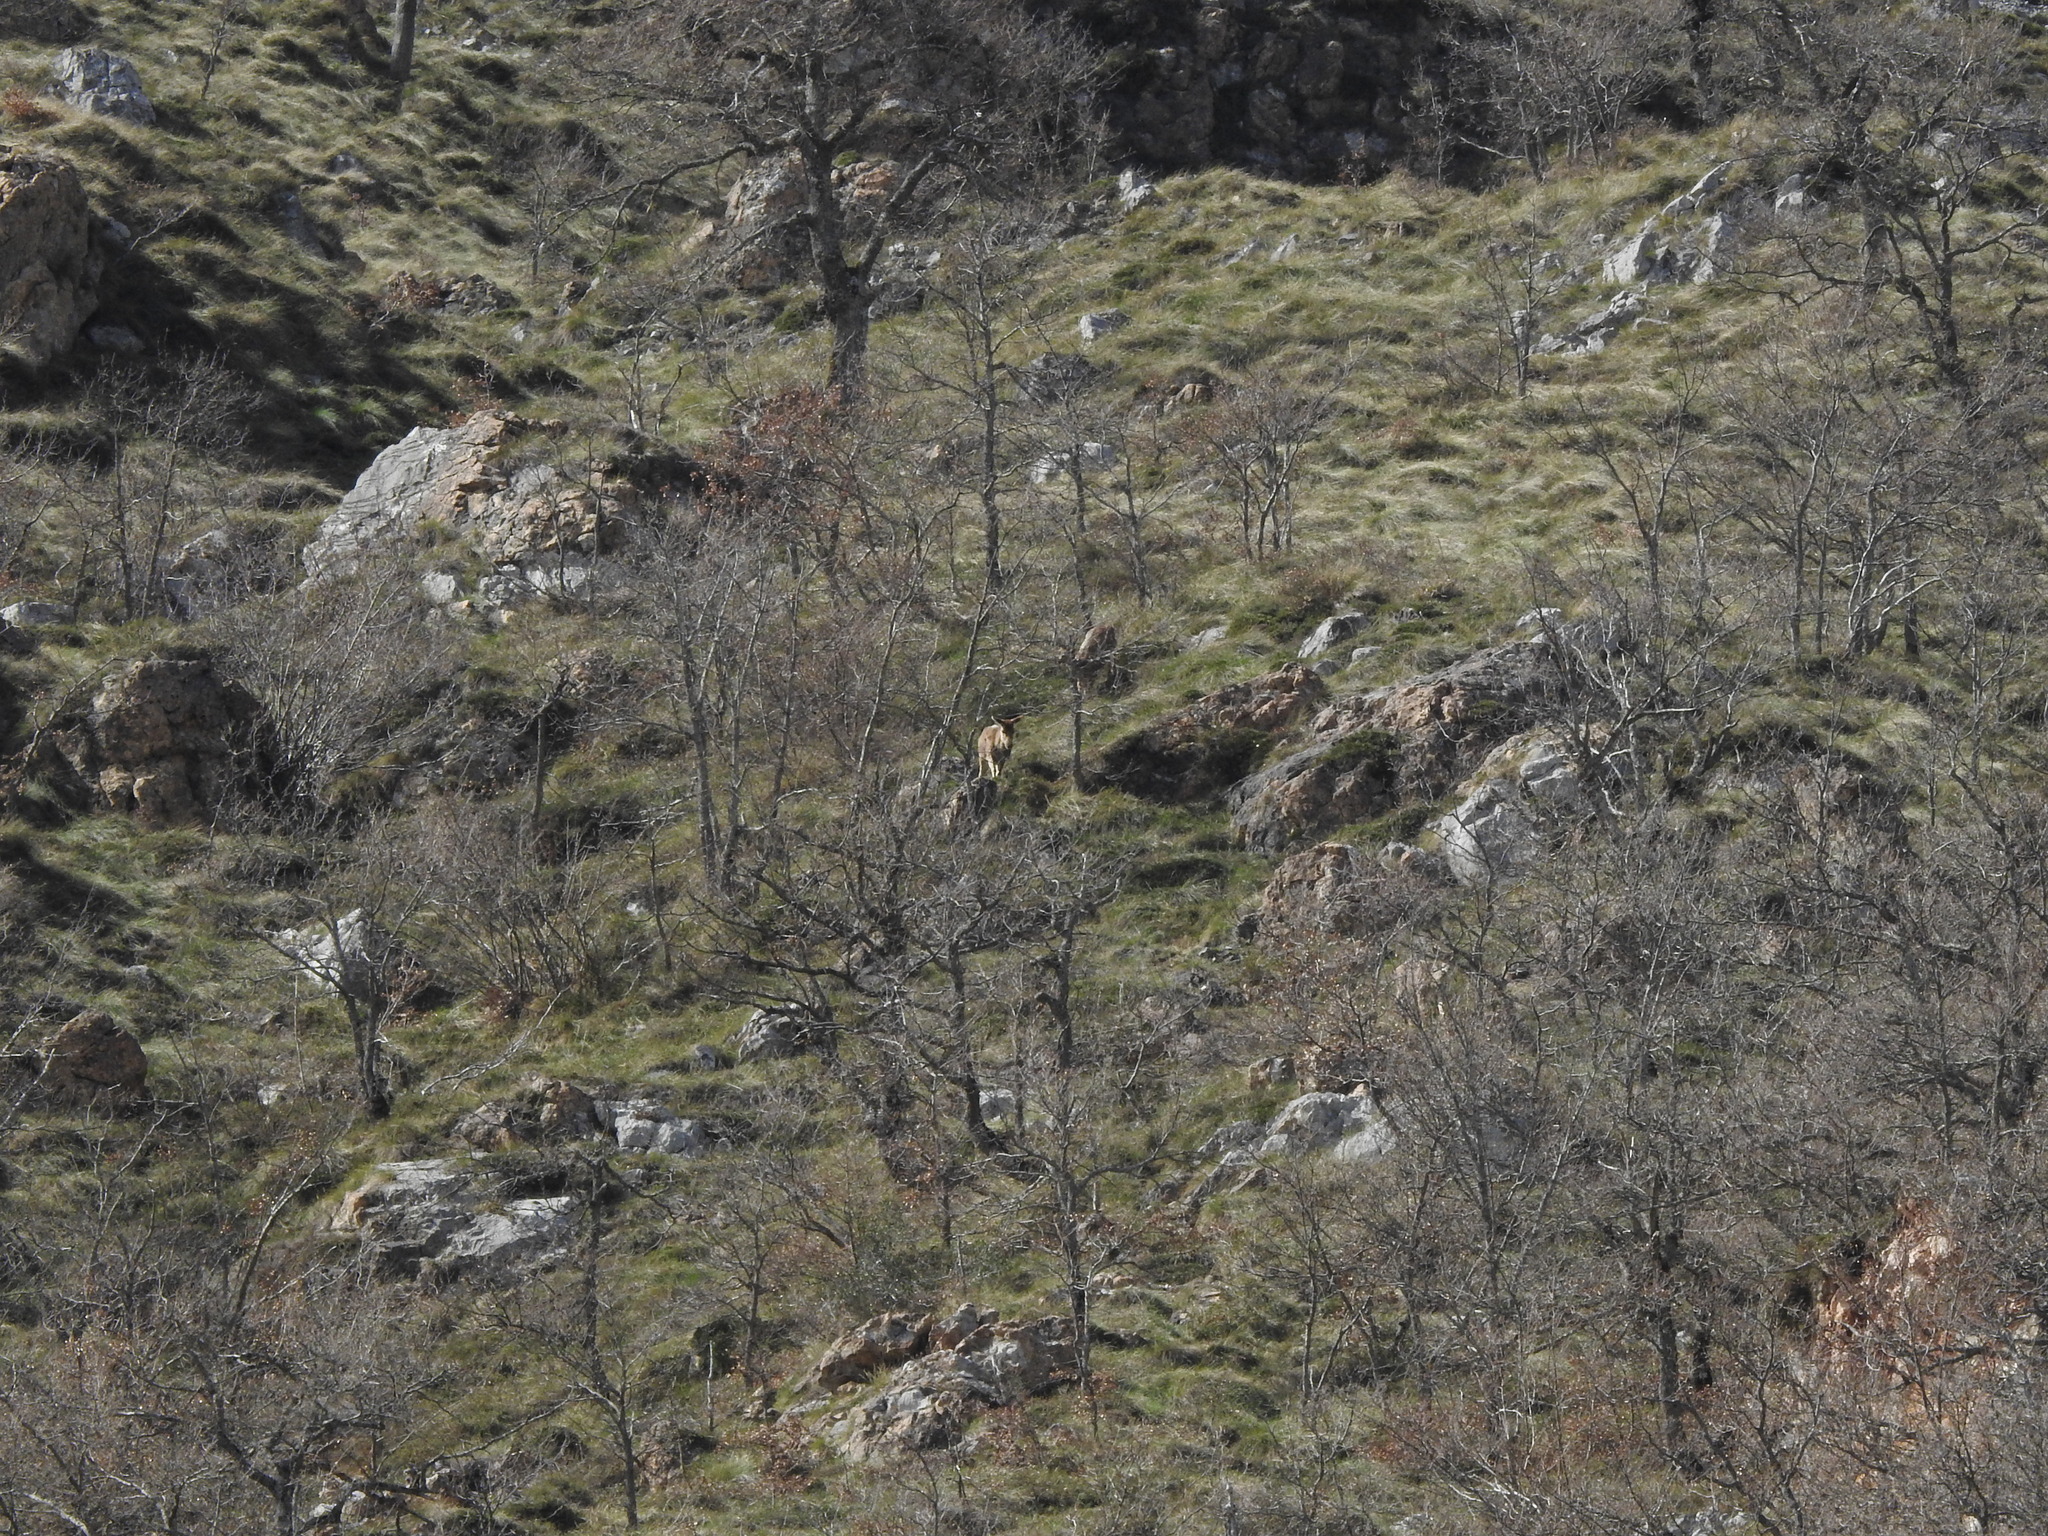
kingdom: Animalia
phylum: Chordata
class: Mammalia
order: Artiodactyla
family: Cervidae
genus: Cervus
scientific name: Cervus elaphus
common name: Red deer
